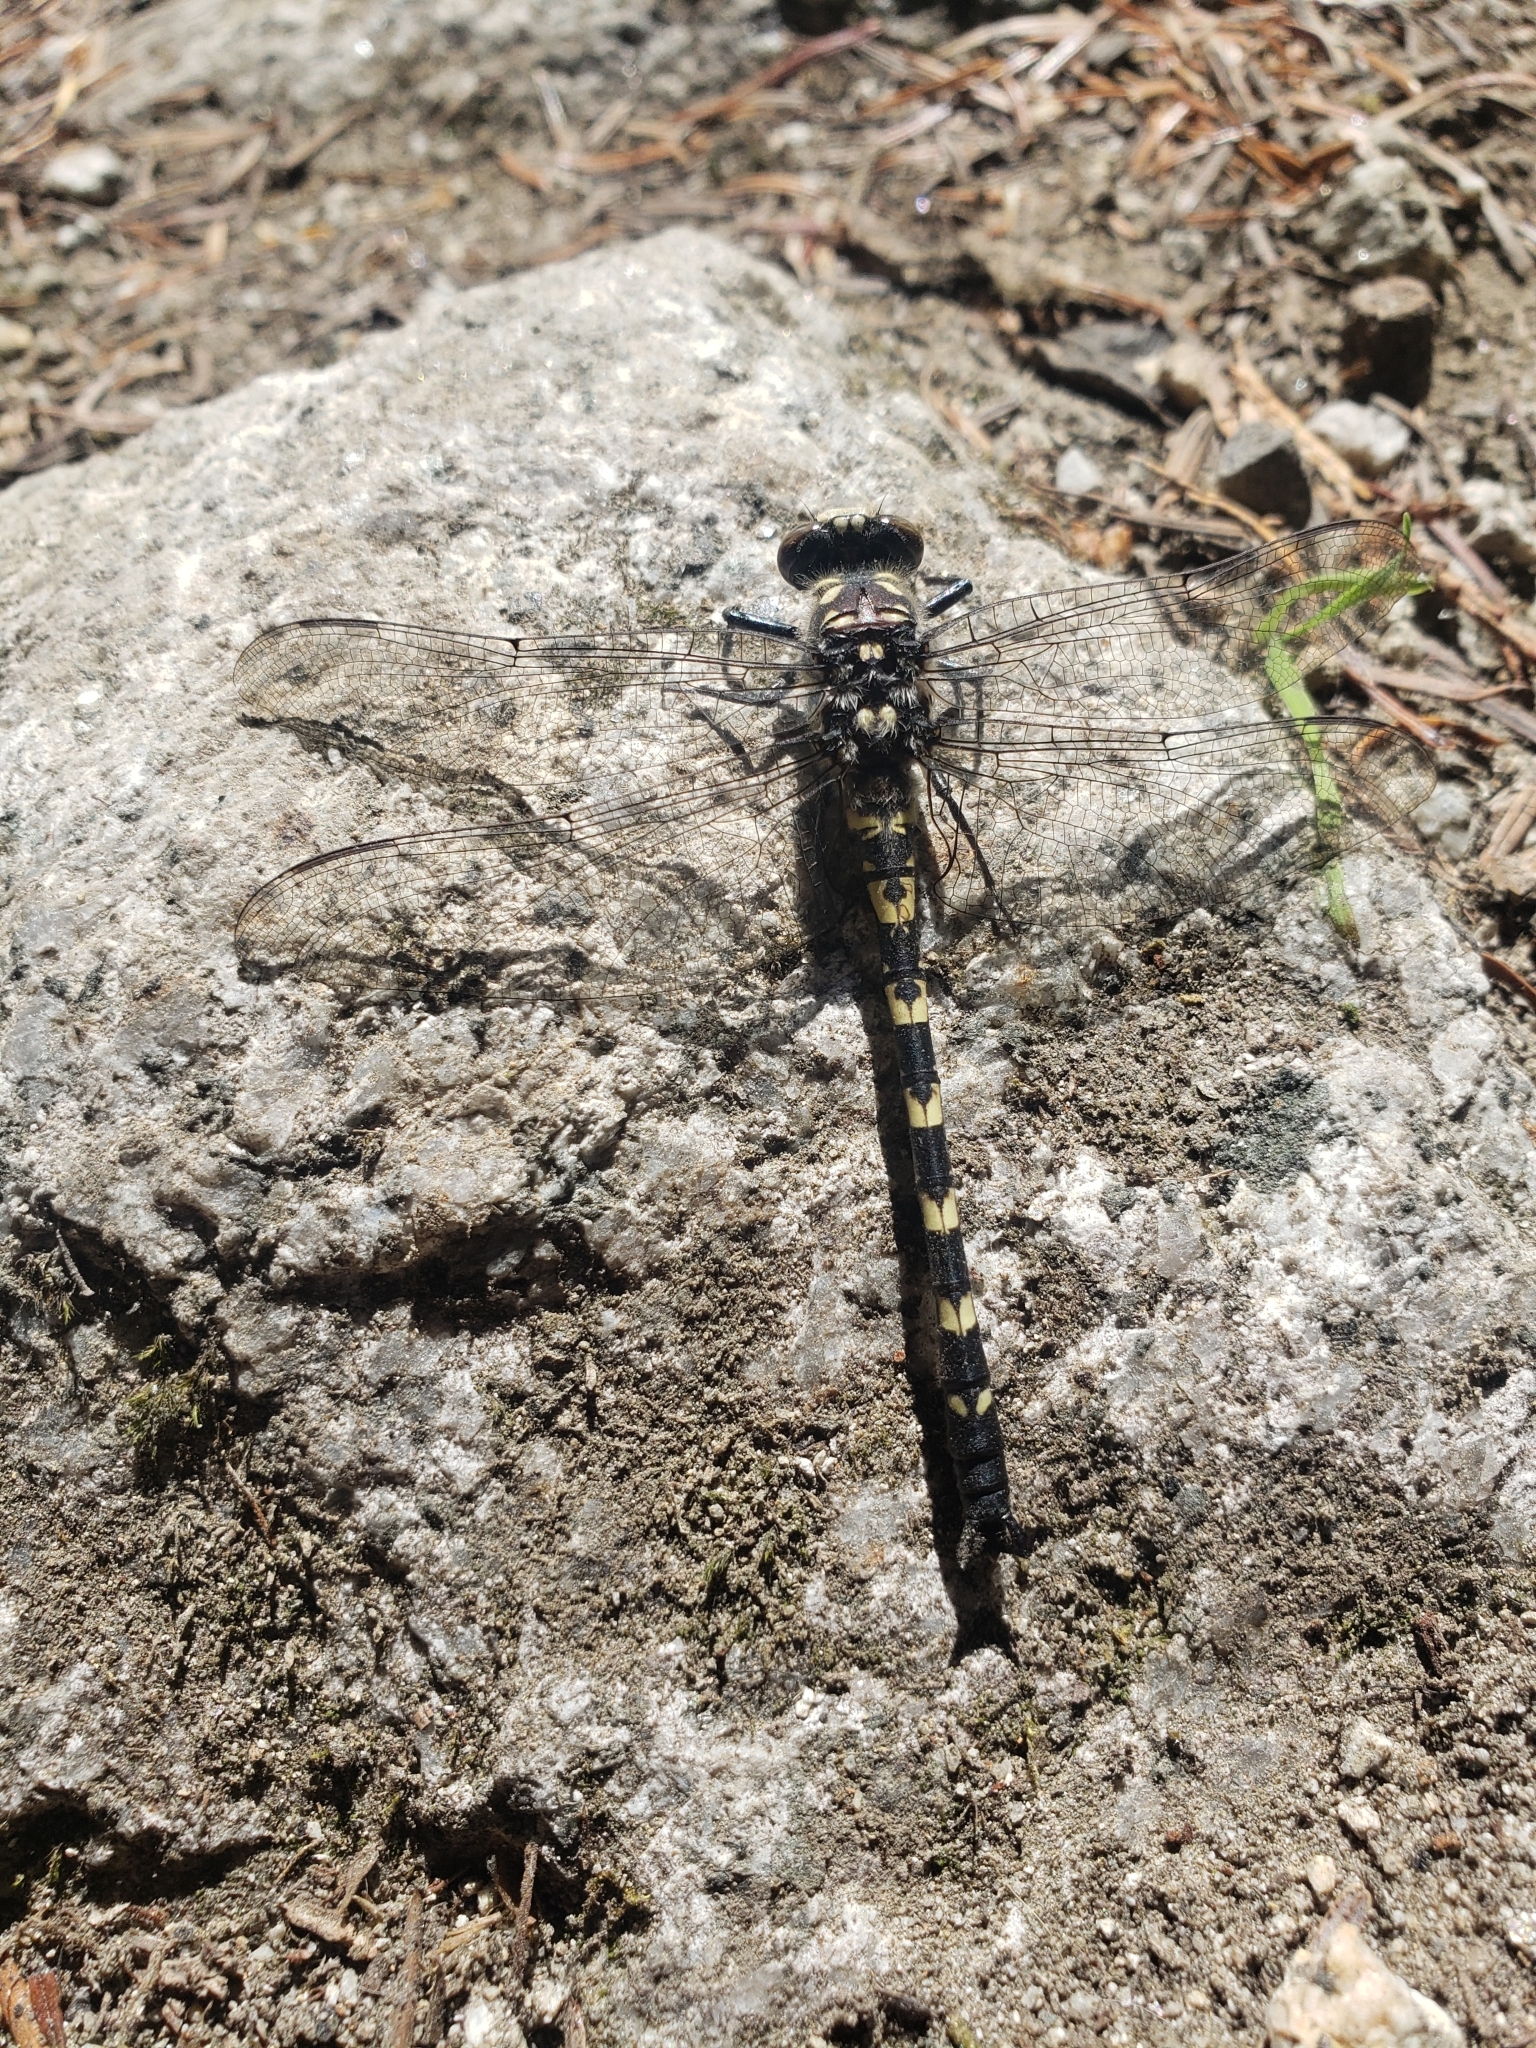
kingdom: Animalia
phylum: Arthropoda
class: Insecta
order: Odonata
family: Petaluridae
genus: Tanypteryx
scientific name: Tanypteryx hageni
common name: Black petaltail
